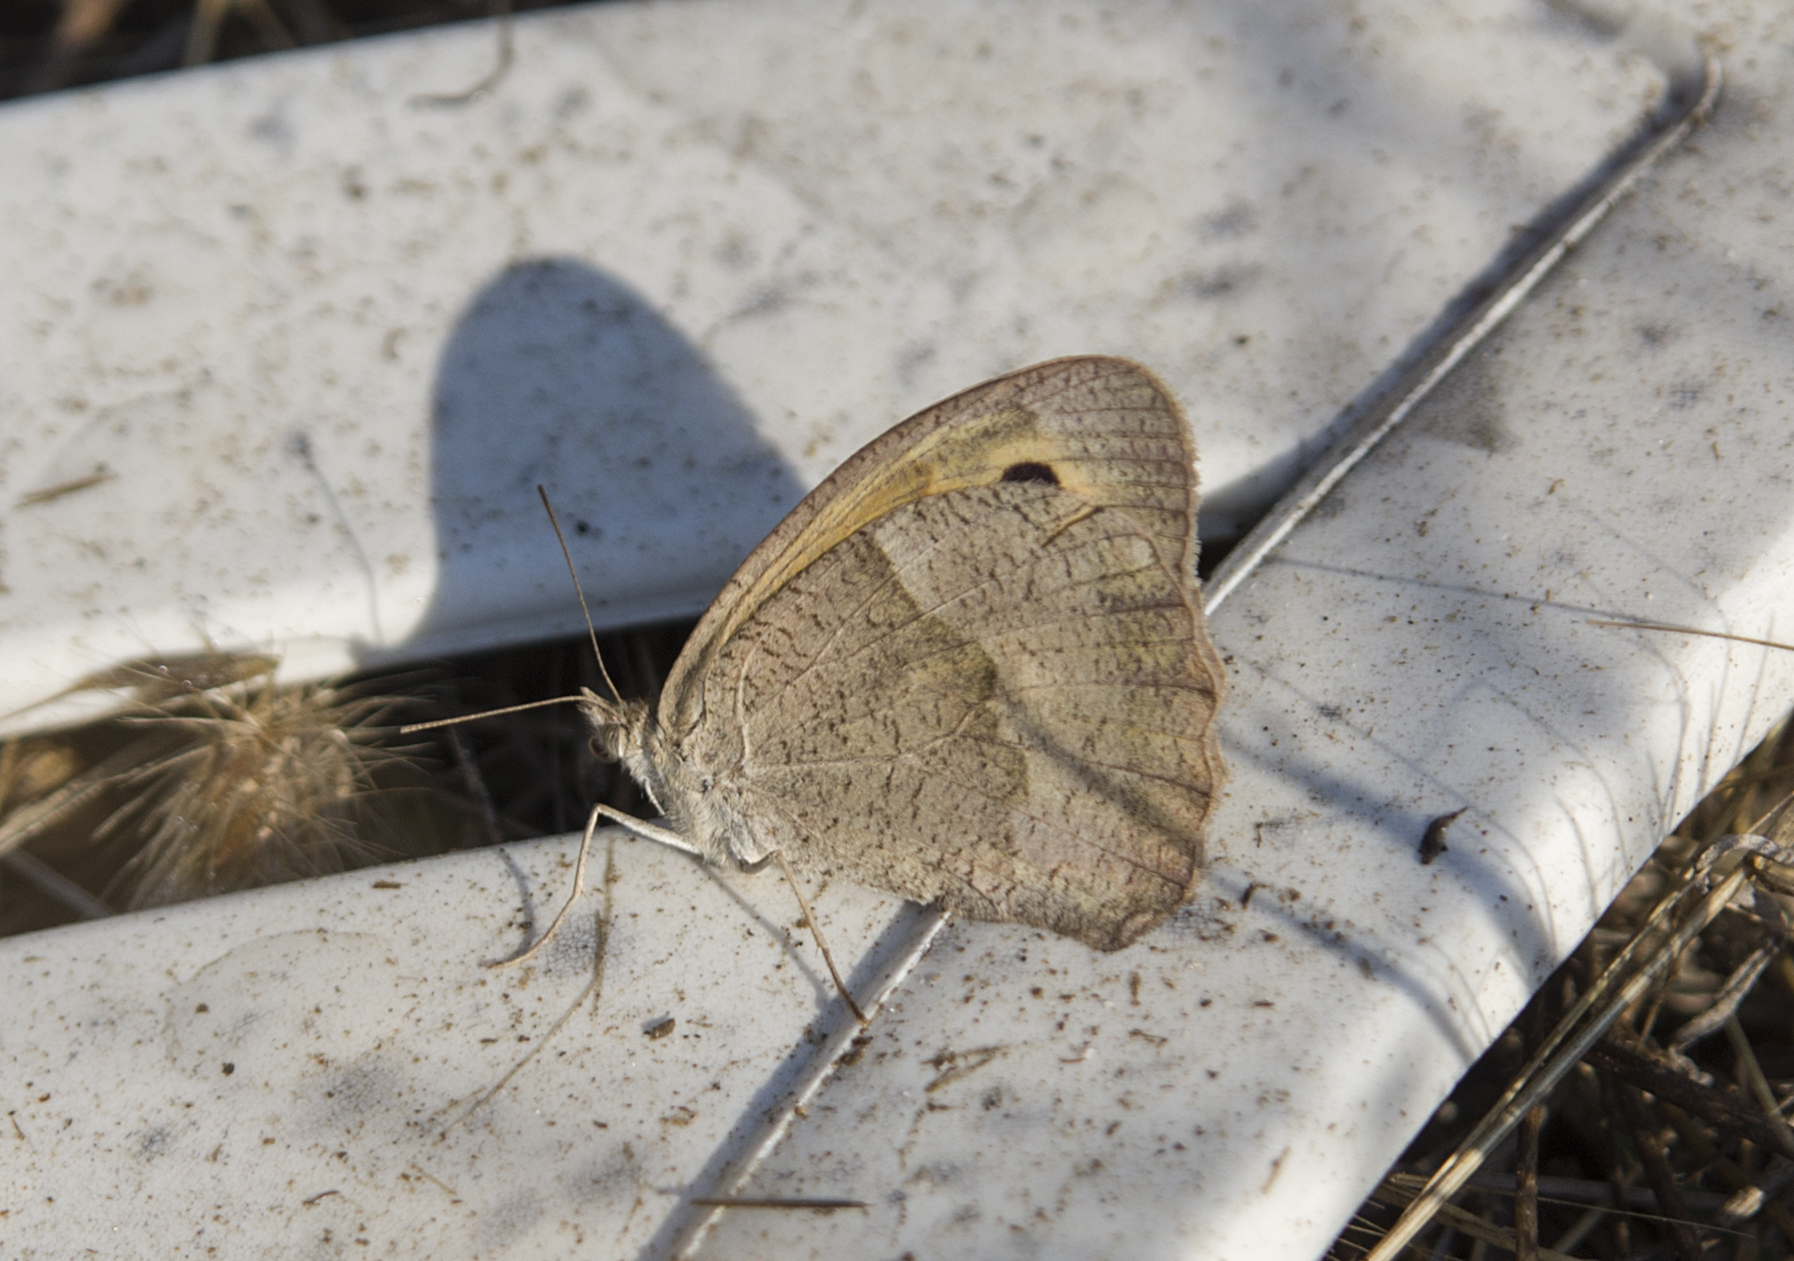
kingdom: Animalia
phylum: Arthropoda
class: Insecta
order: Lepidoptera
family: Nymphalidae
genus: Maniola
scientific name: Maniola jurtina
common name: Meadow brown
